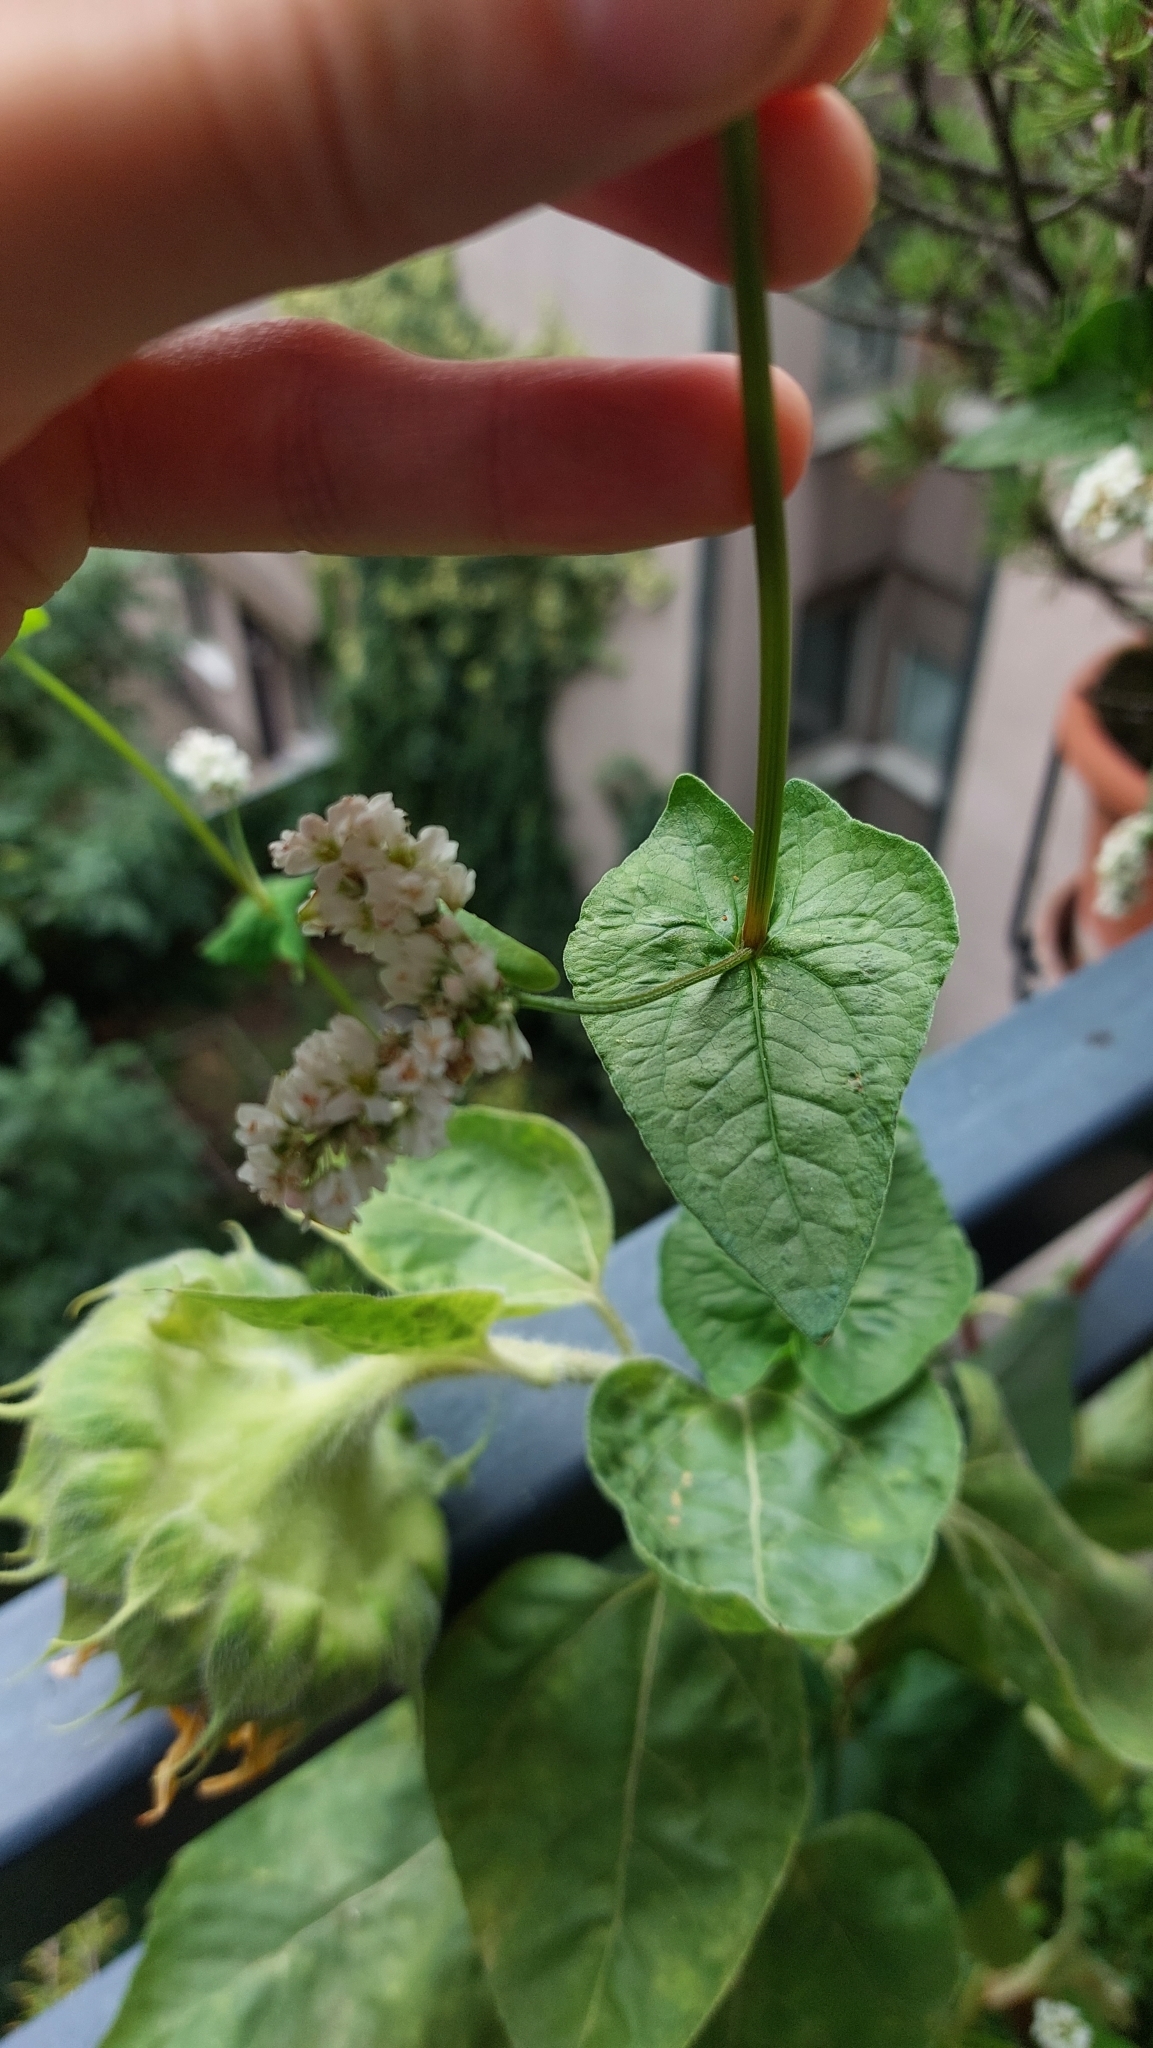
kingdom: Plantae
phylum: Tracheophyta
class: Magnoliopsida
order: Caryophyllales
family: Polygonaceae
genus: Fagopyrum
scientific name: Fagopyrum esculentum
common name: Buckwheat
